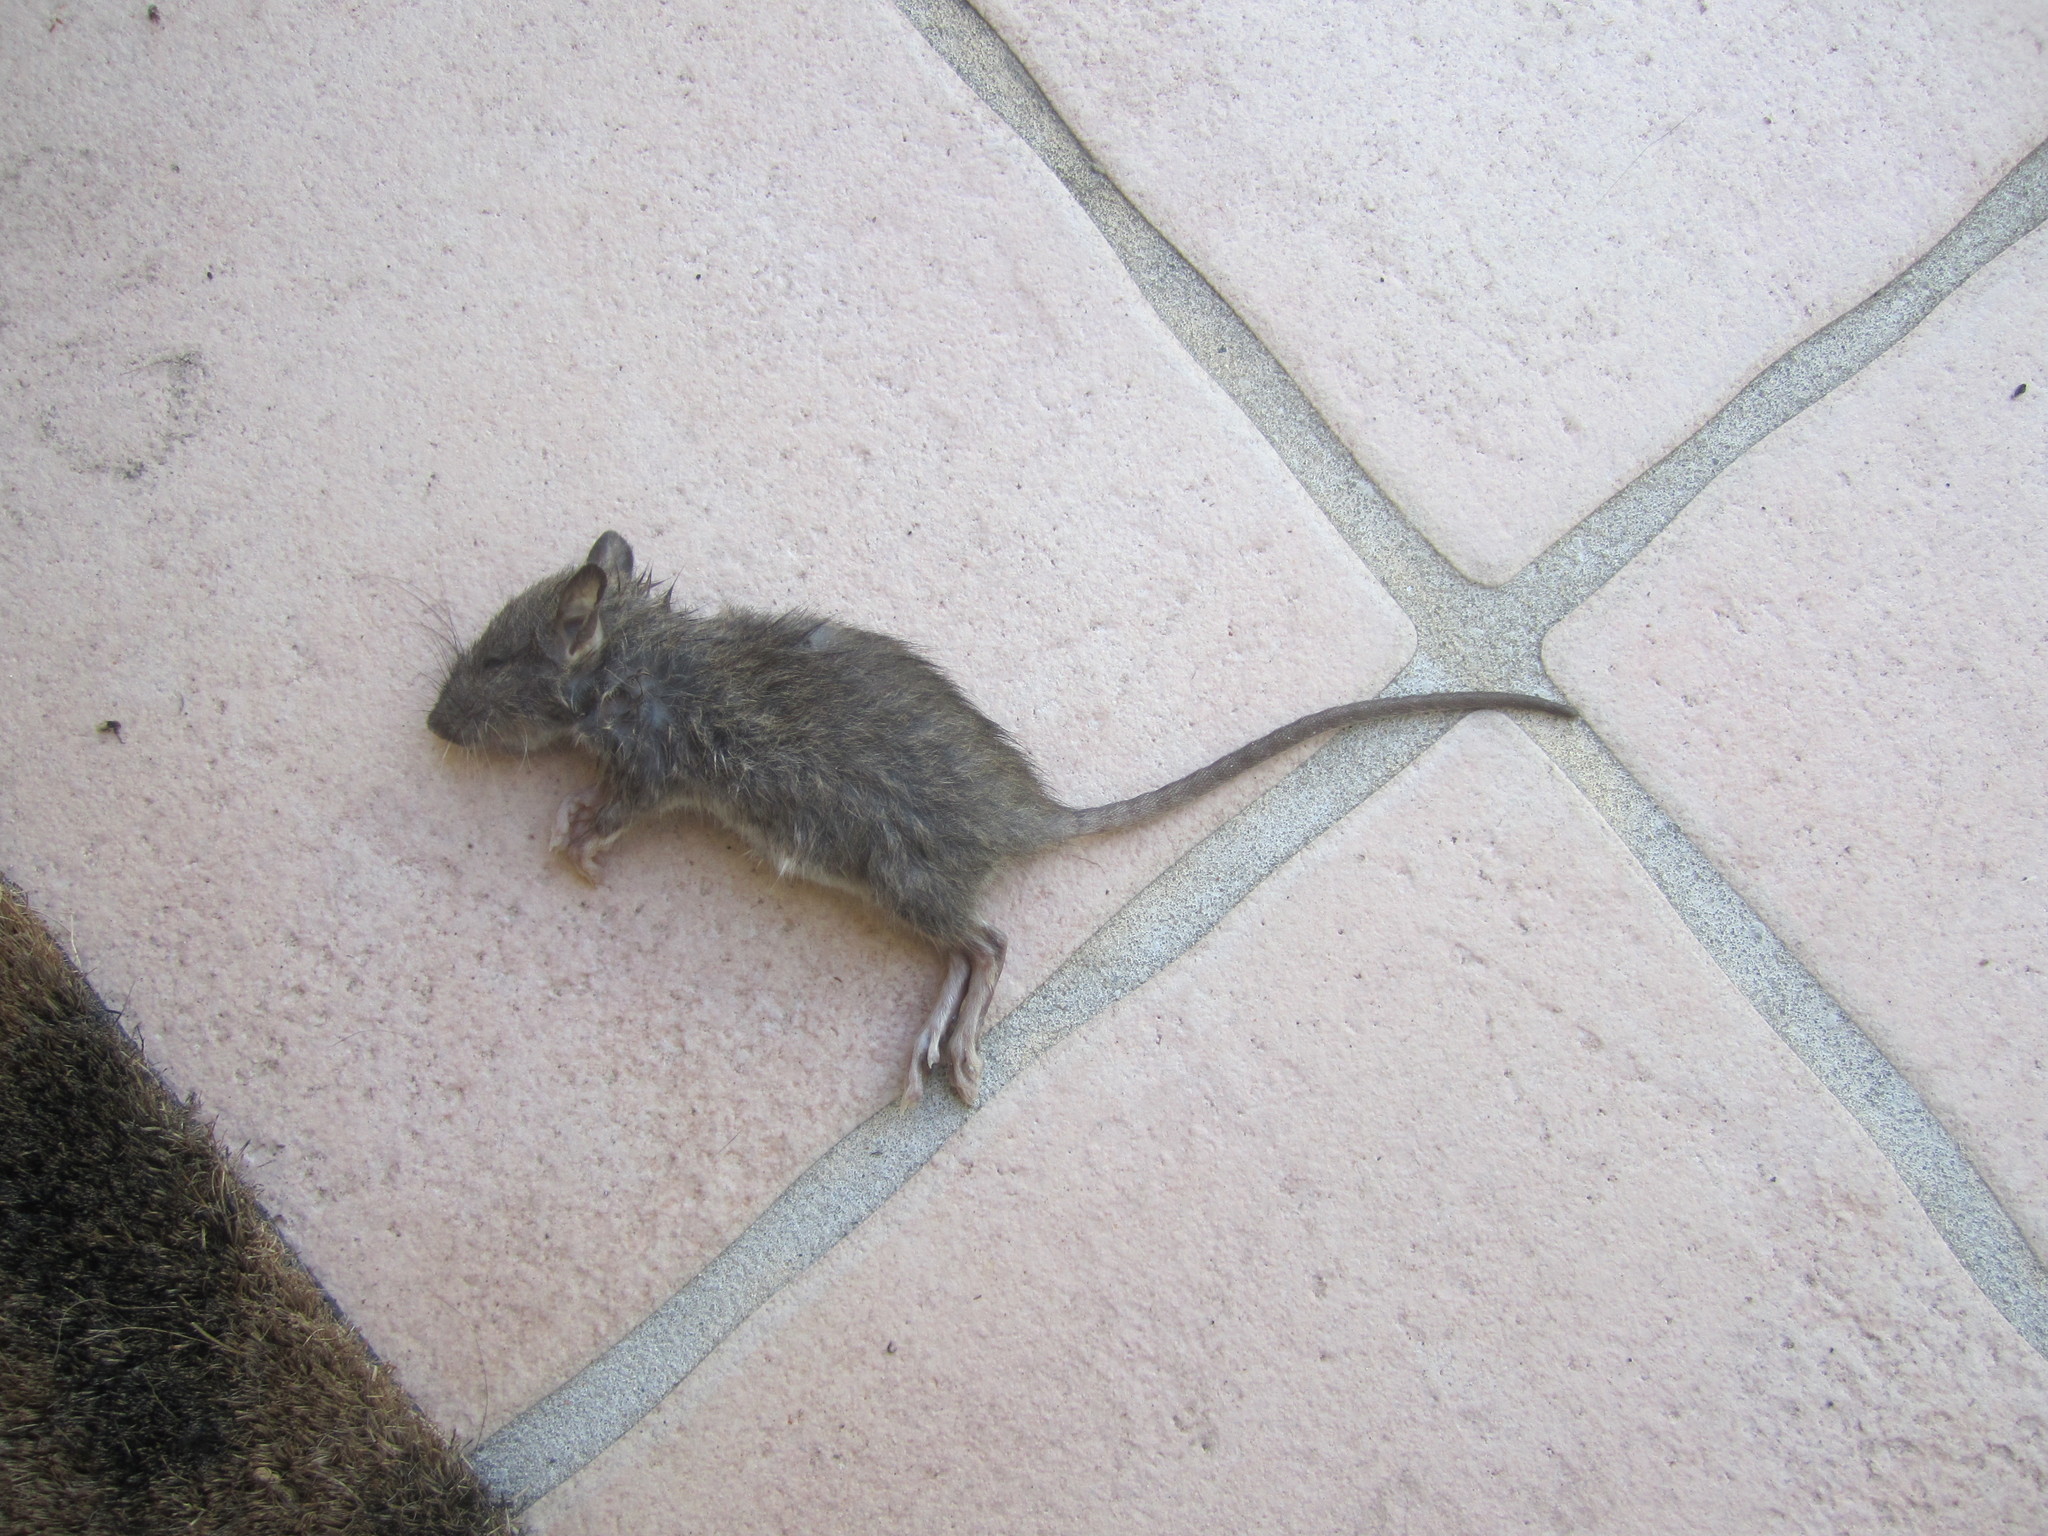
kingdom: Animalia
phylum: Chordata
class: Mammalia
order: Rodentia
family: Muridae
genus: Rattus
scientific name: Rattus norvegicus
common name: Brown rat
